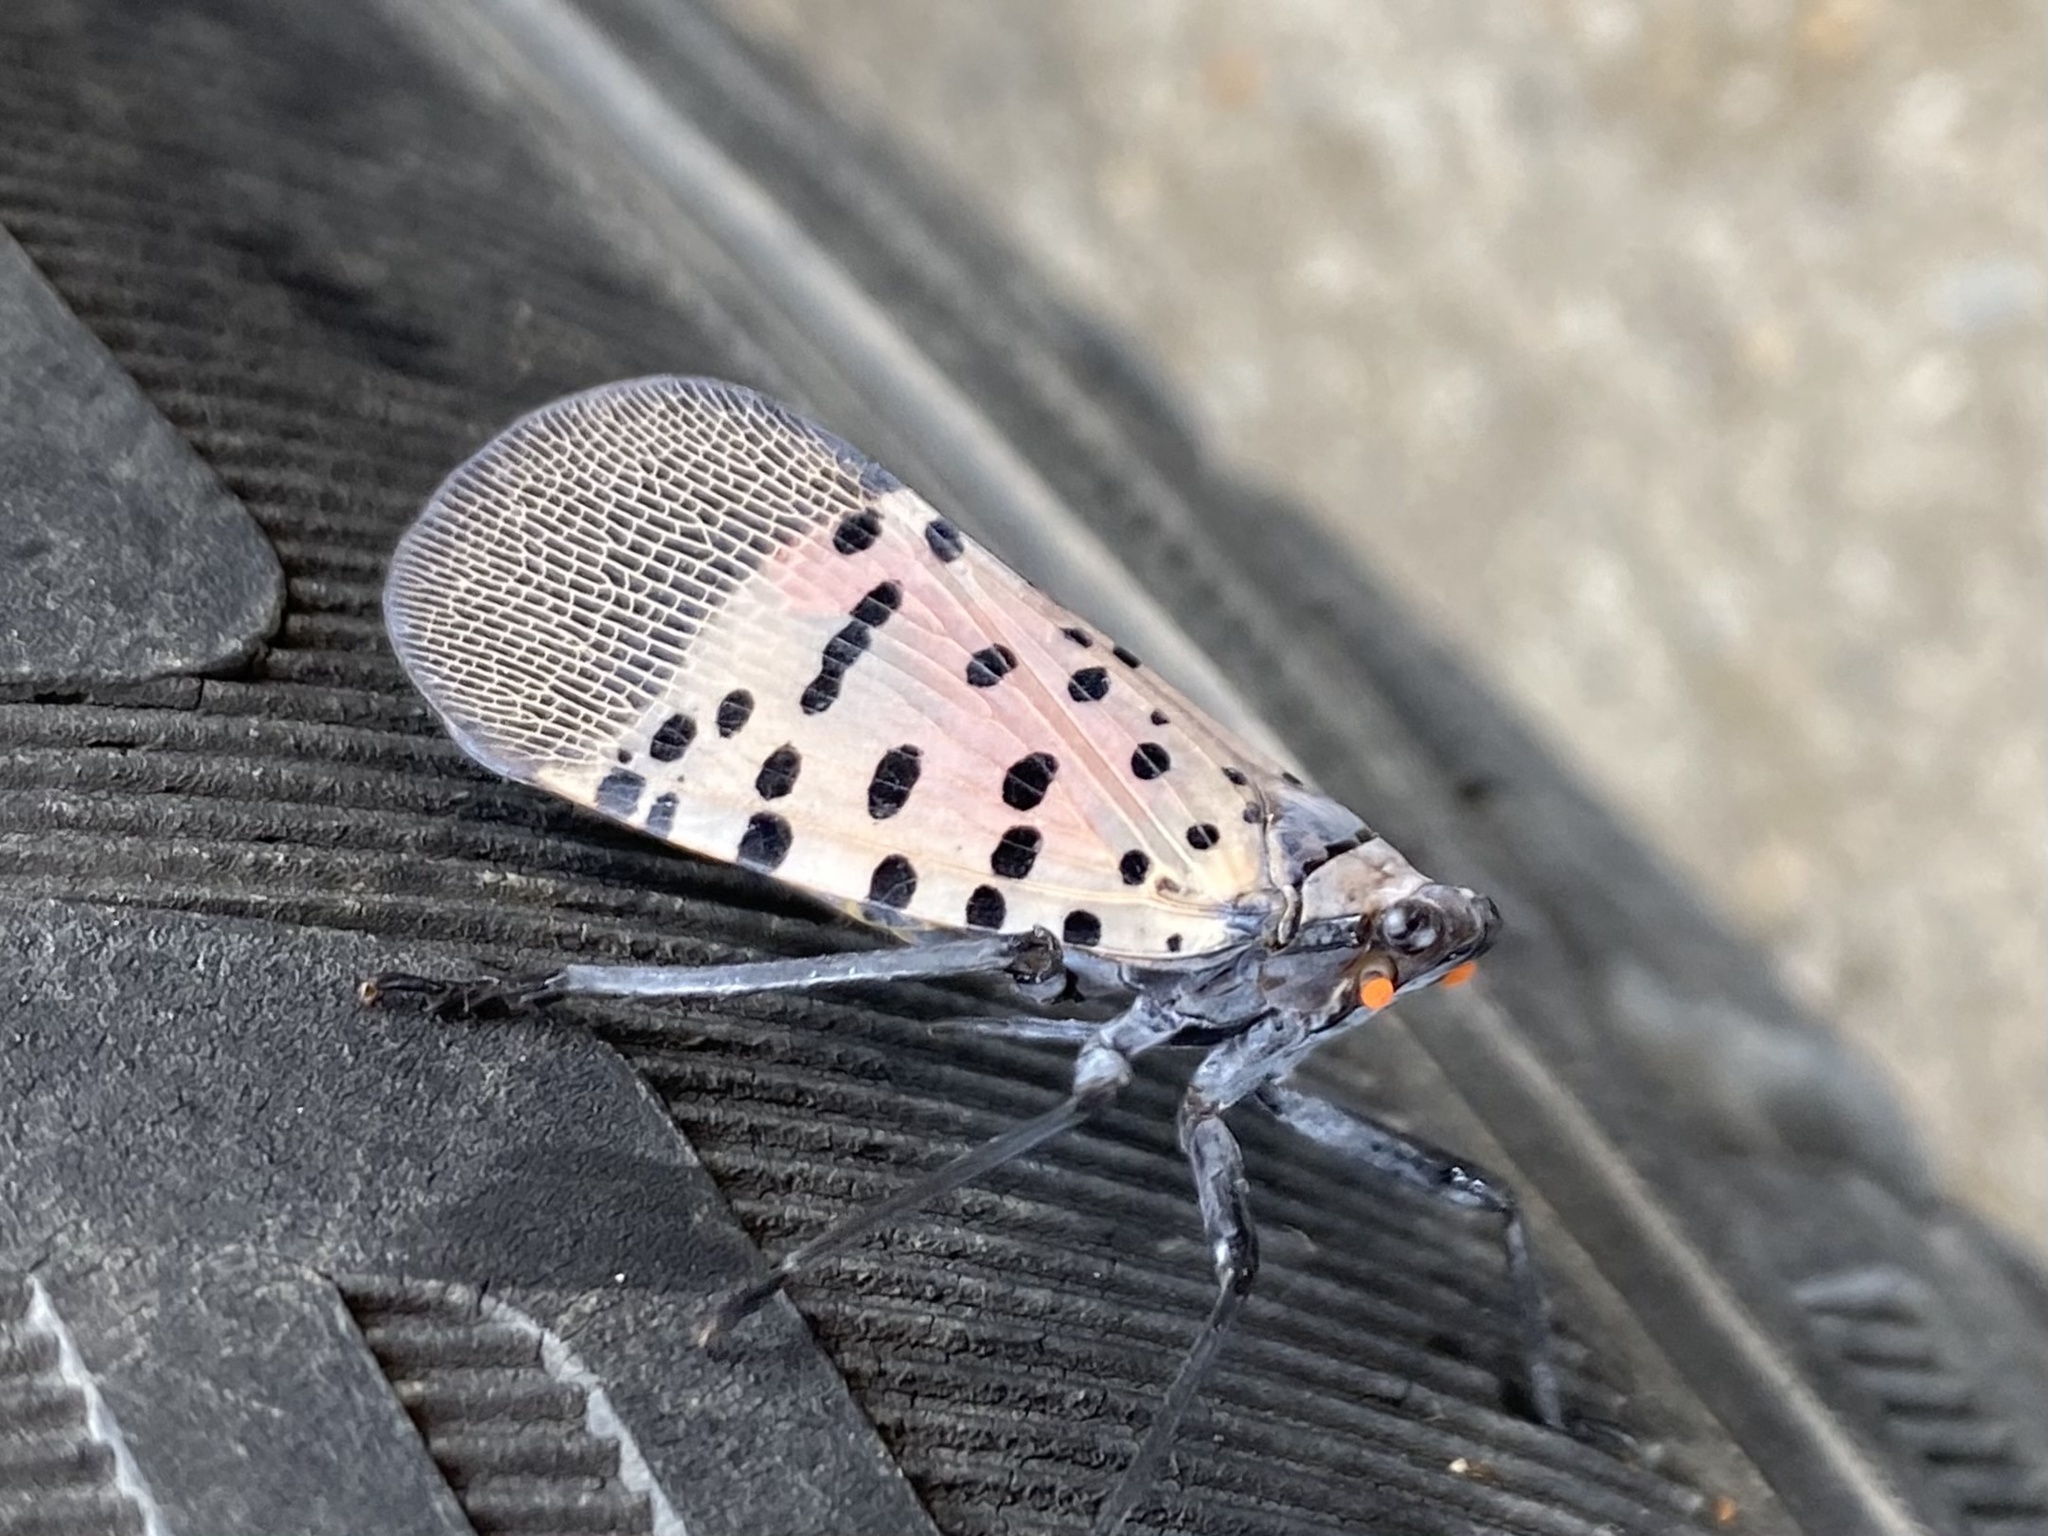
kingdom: Animalia
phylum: Arthropoda
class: Insecta
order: Hemiptera
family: Fulgoridae
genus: Lycorma
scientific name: Lycorma delicatula
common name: Spotted lanternfly
